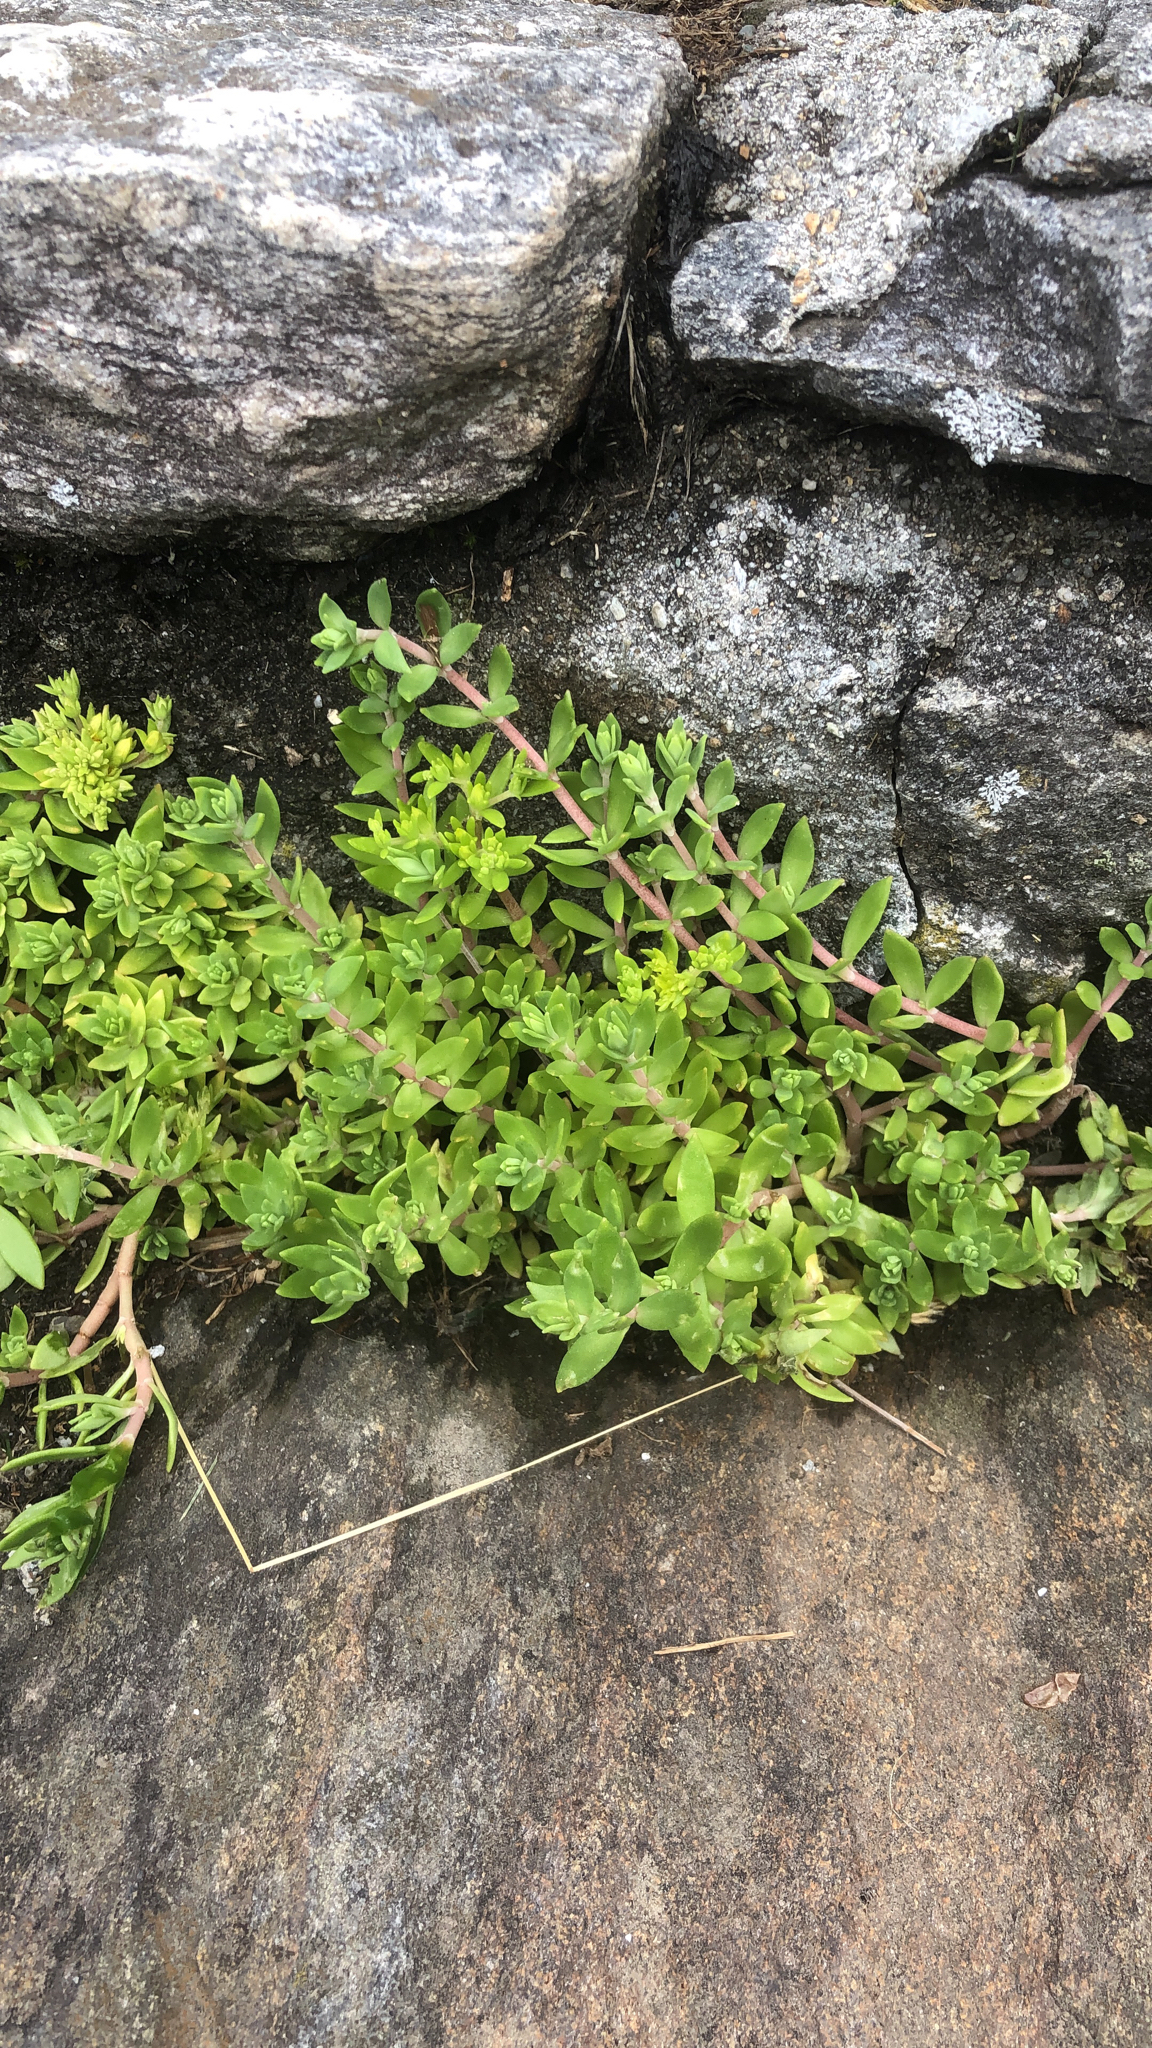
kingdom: Plantae
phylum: Tracheophyta
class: Magnoliopsida
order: Saxifragales
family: Crassulaceae
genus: Sedum
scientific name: Sedum sarmentosum
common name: Stringy stonecrop
